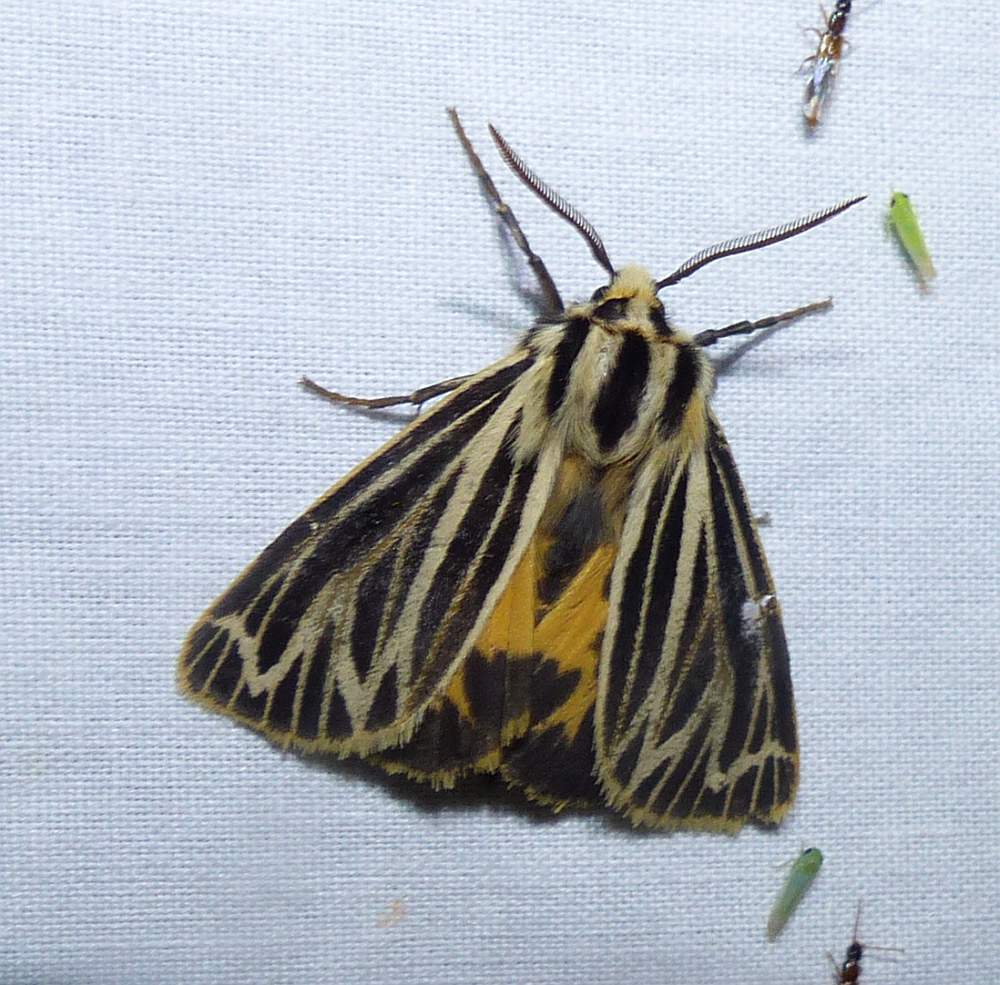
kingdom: Animalia
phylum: Arthropoda
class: Insecta
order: Lepidoptera
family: Erebidae
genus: Grammia
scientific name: Grammia virguncula
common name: Little tiger moth
